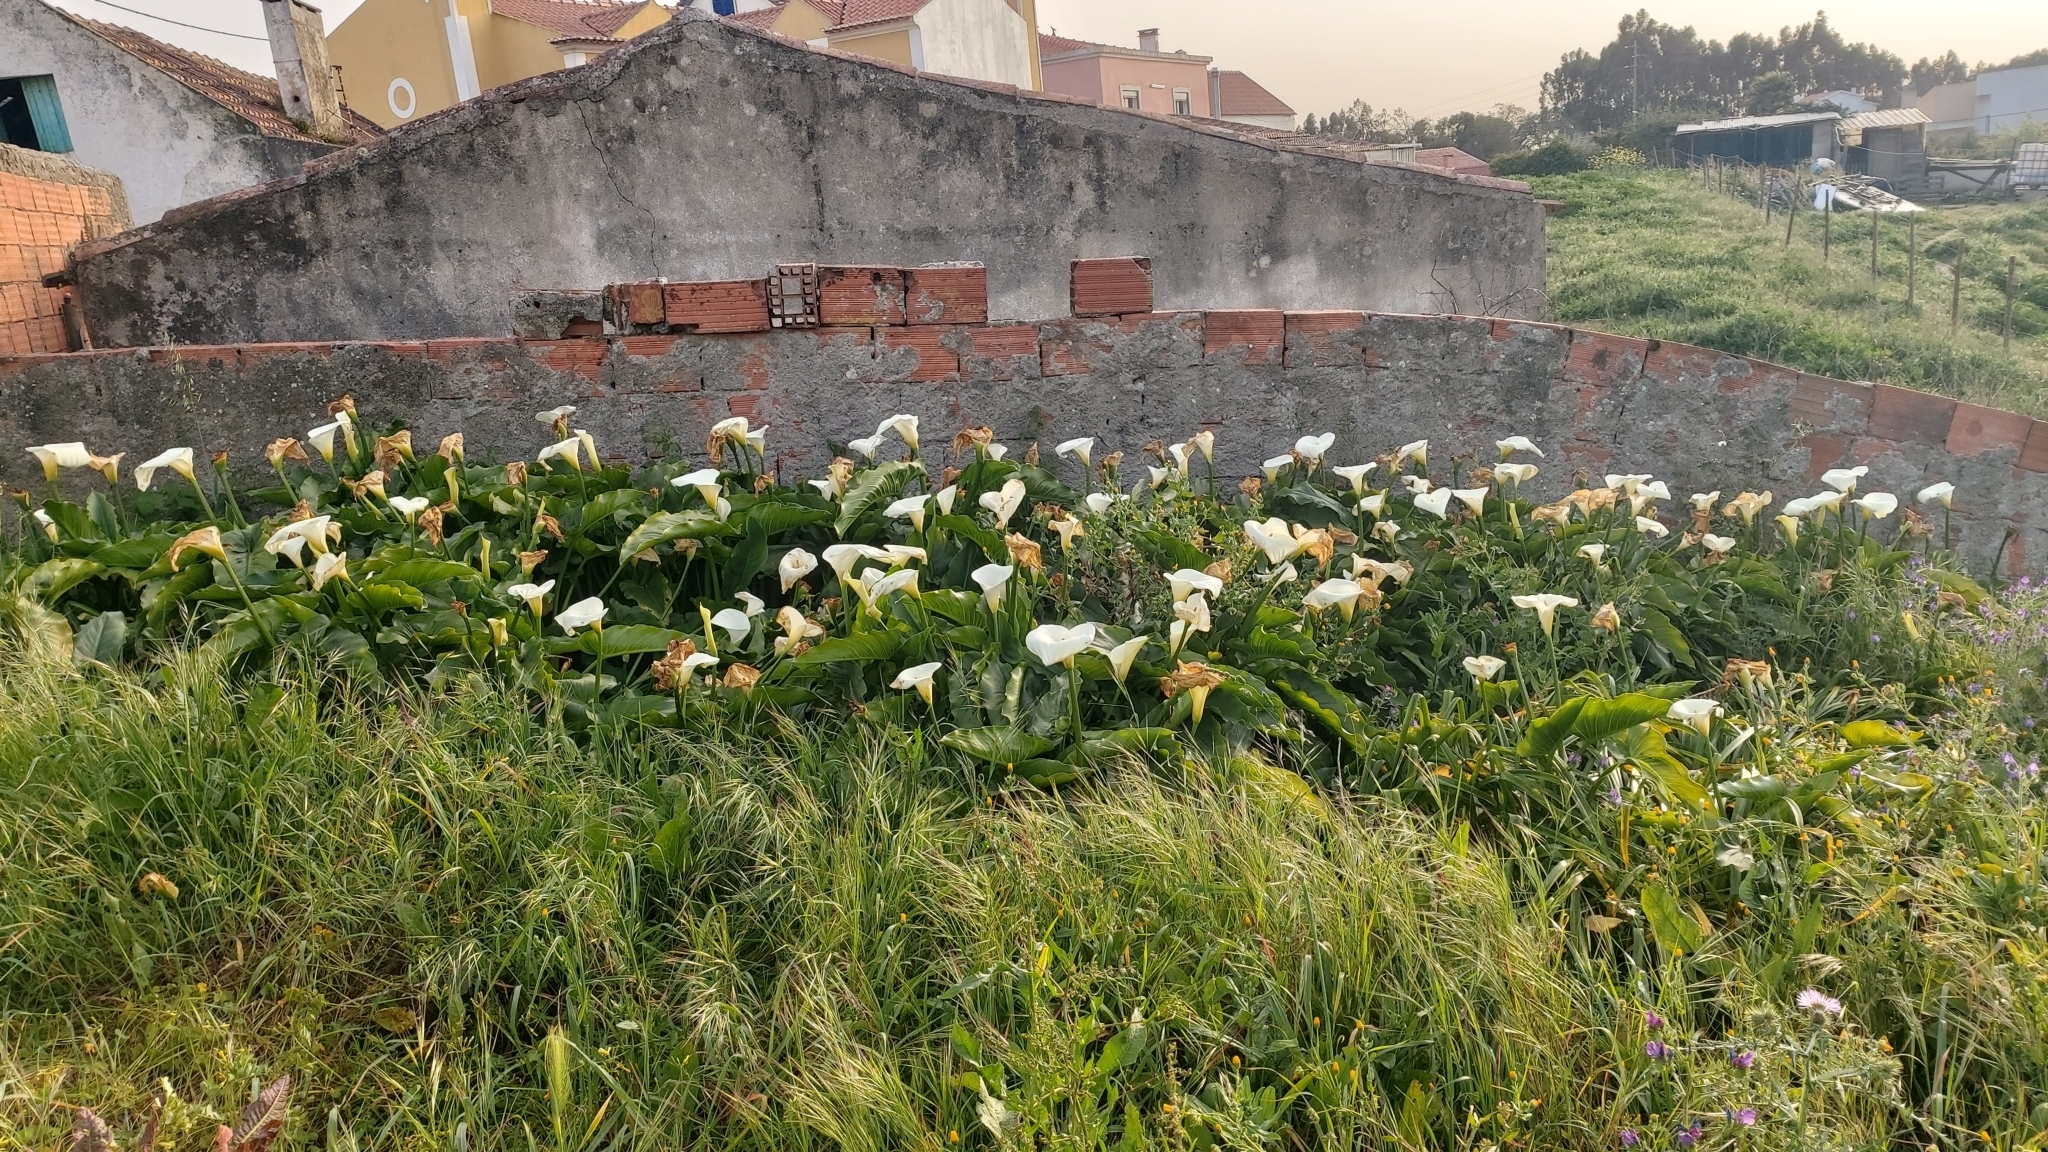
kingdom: Plantae
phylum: Tracheophyta
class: Liliopsida
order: Alismatales
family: Araceae
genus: Zantedeschia
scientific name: Zantedeschia aethiopica
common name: Altar-lily
